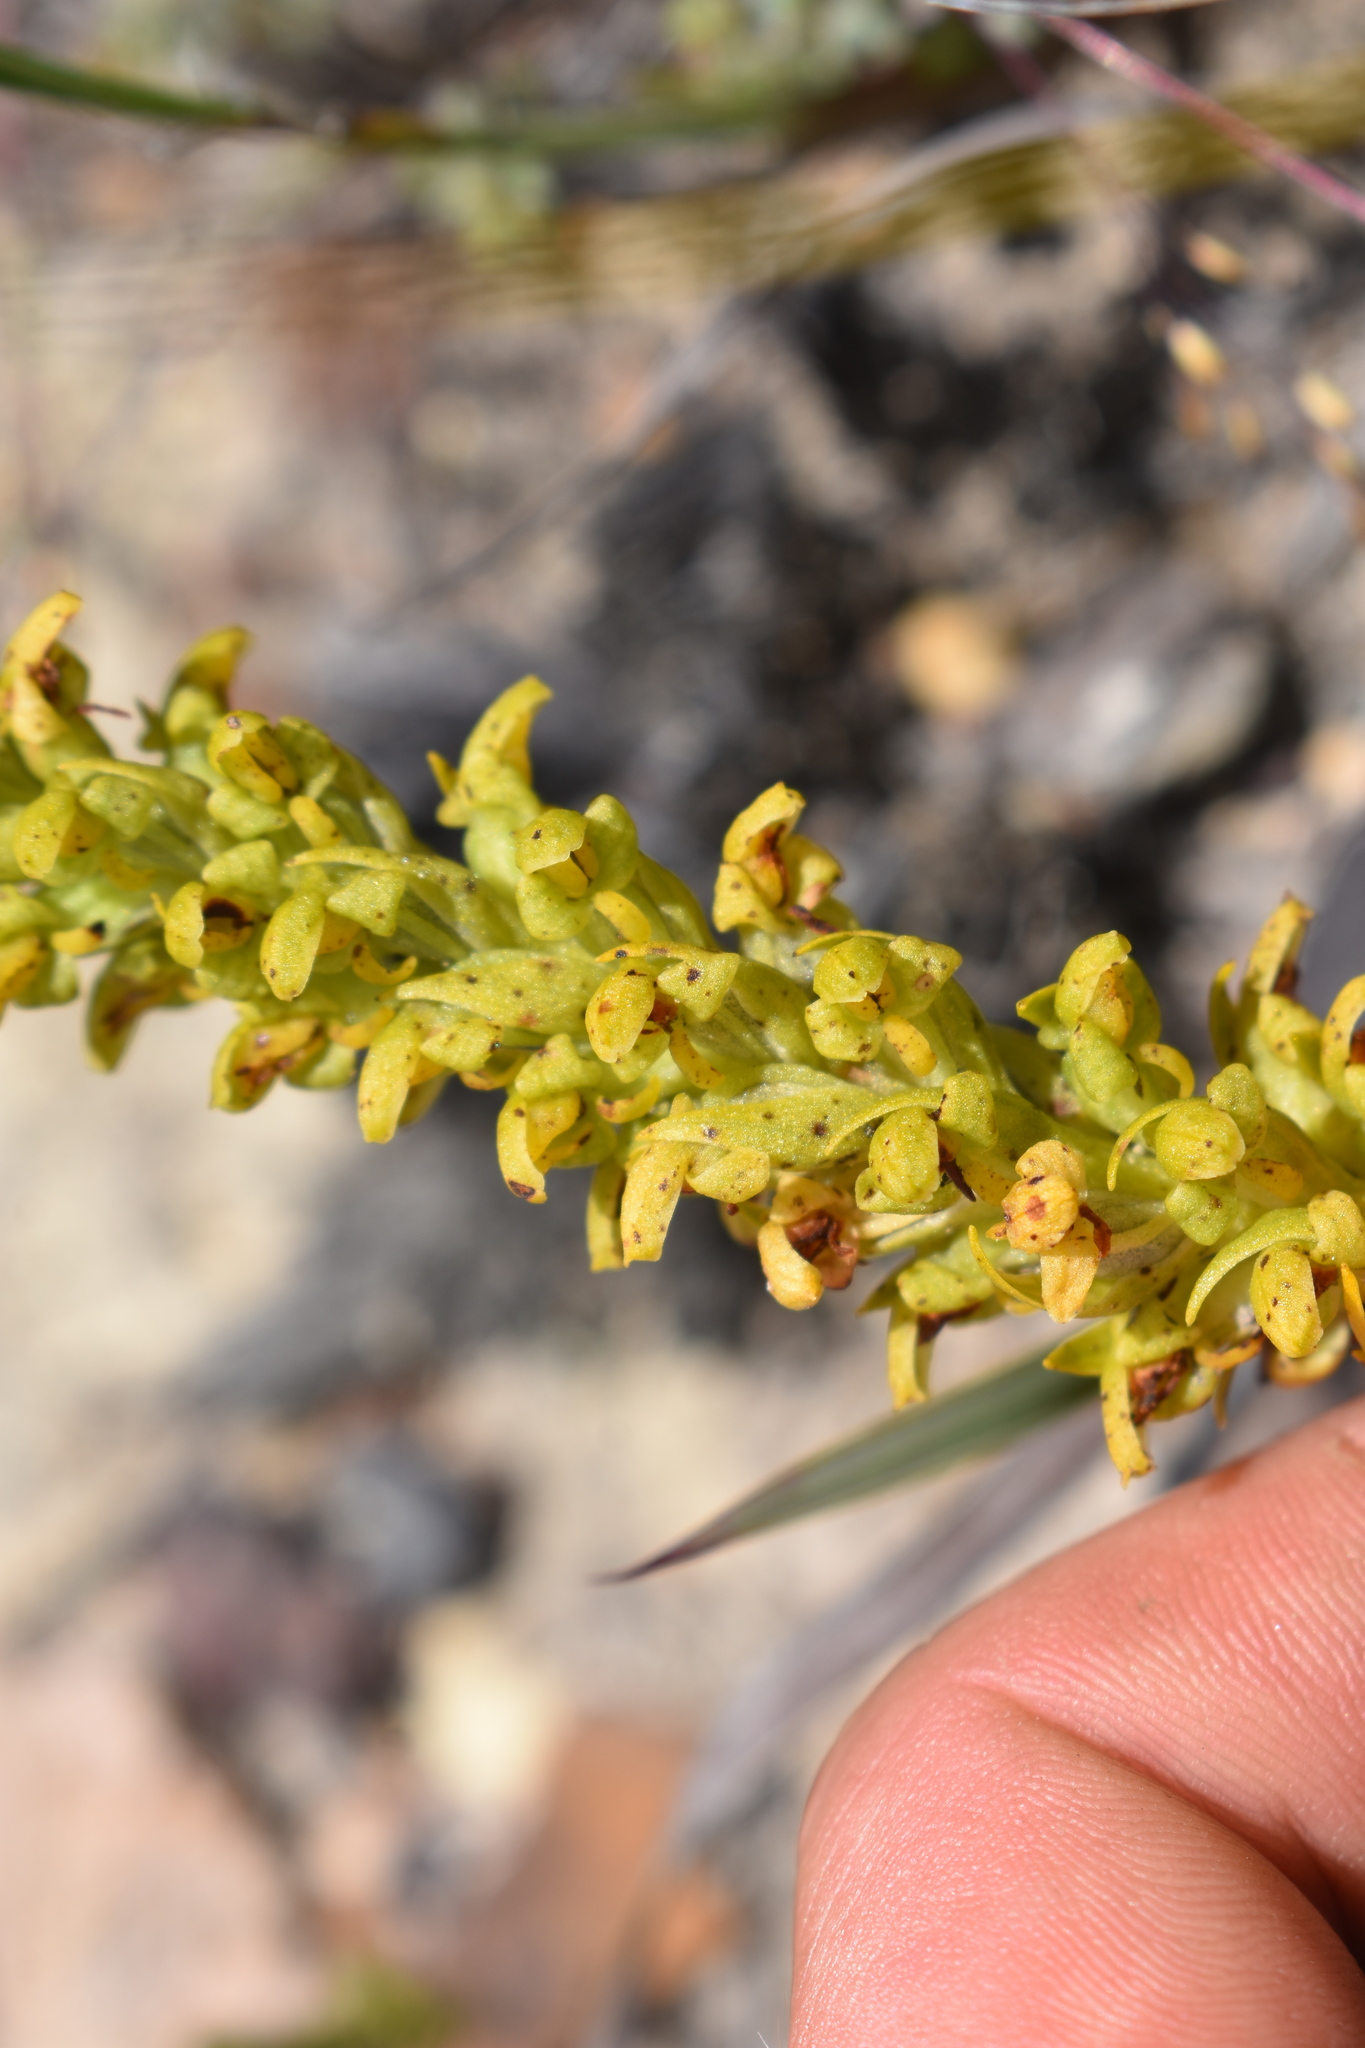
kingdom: Plantae
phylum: Tracheophyta
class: Liliopsida
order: Asparagales
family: Orchidaceae
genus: Disa
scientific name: Disa cylindrica
